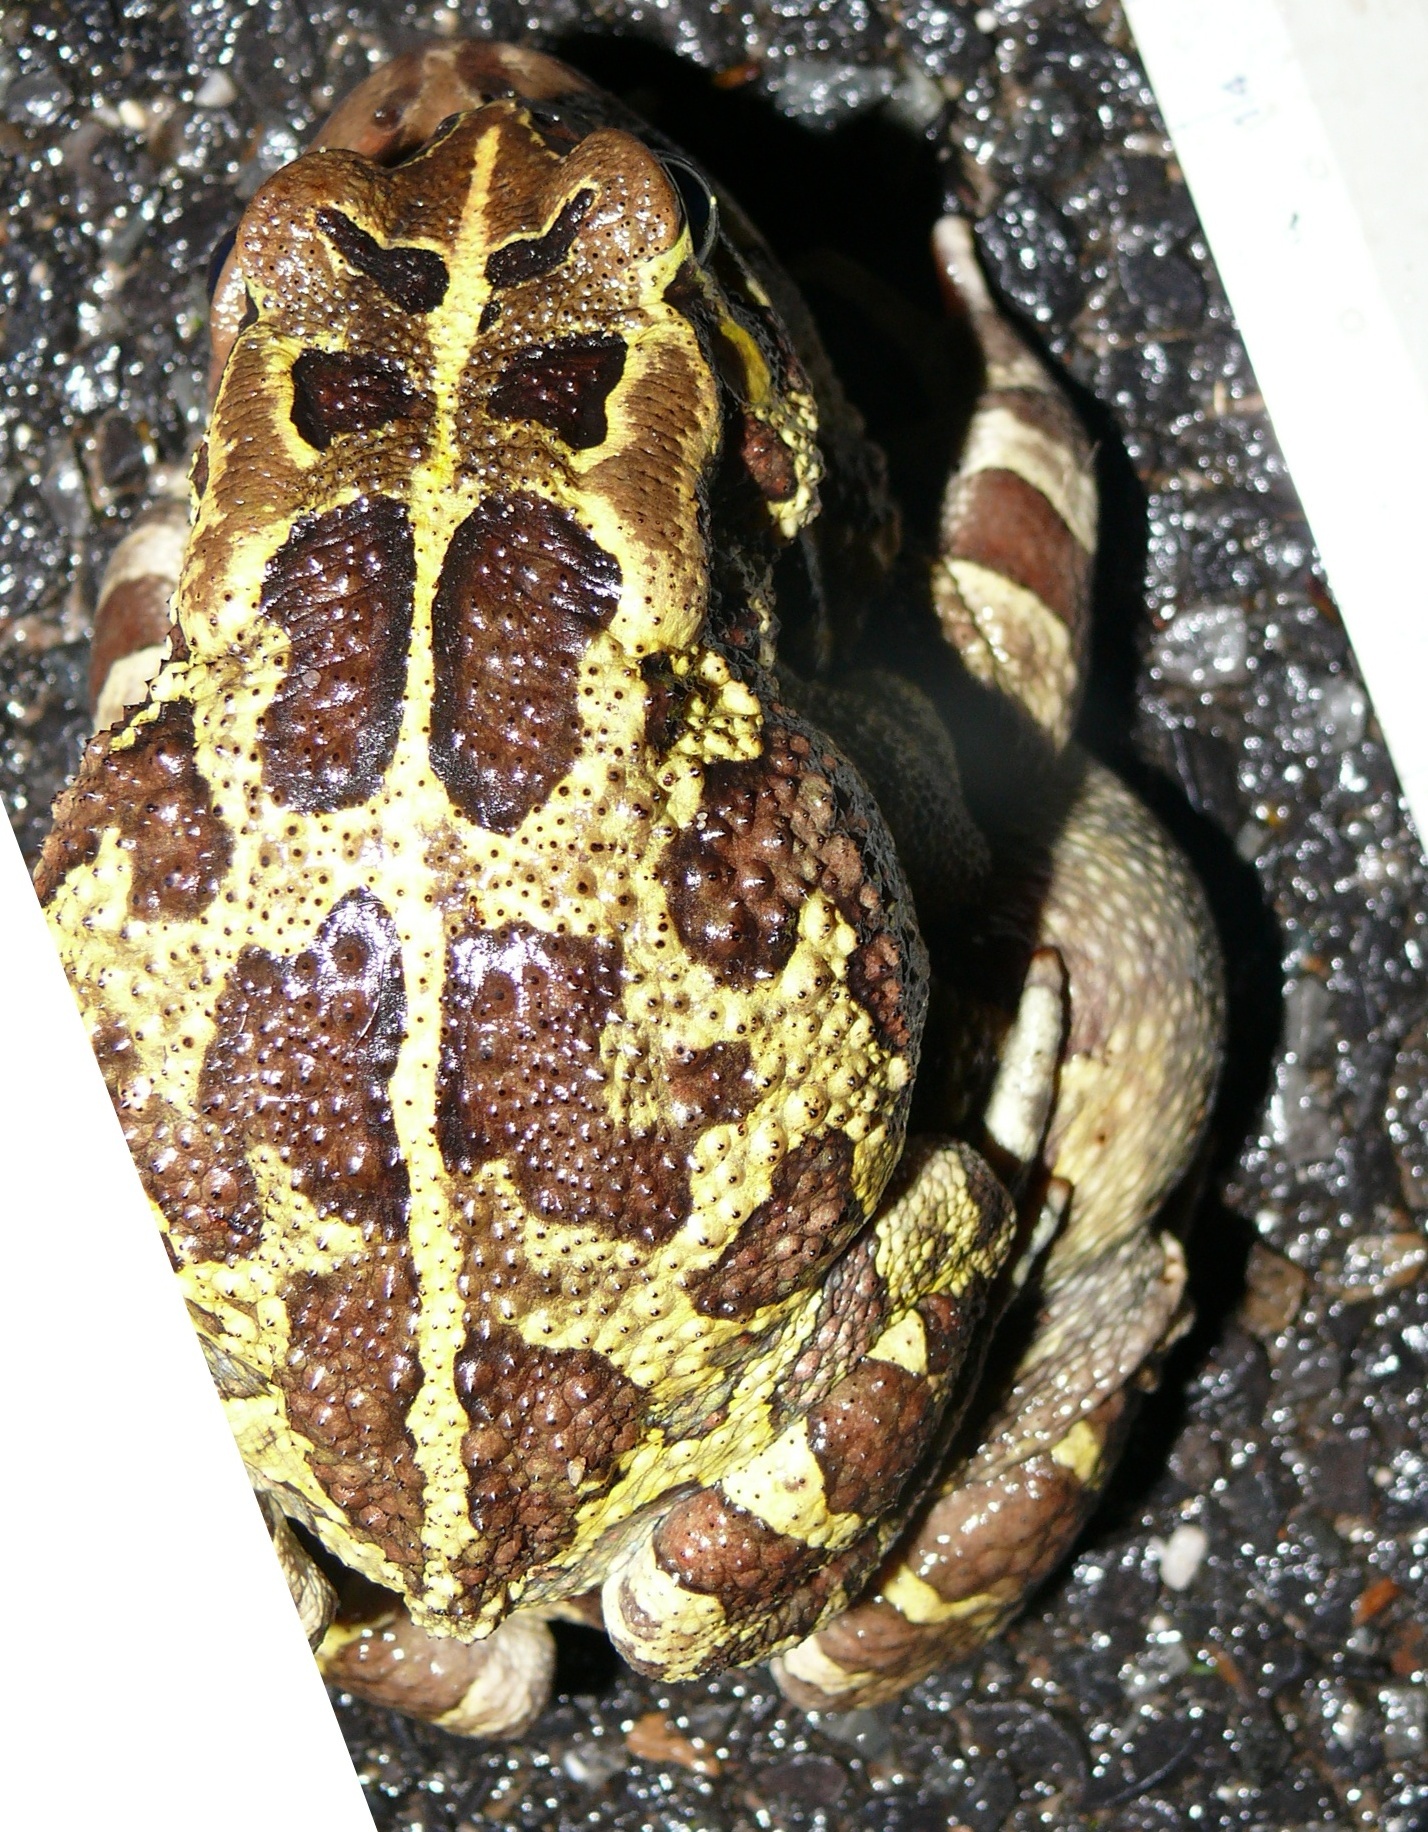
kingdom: Animalia
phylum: Chordata
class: Amphibia
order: Anura
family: Bufonidae
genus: Sclerophrys
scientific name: Sclerophrys pantherina
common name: Panther toad
